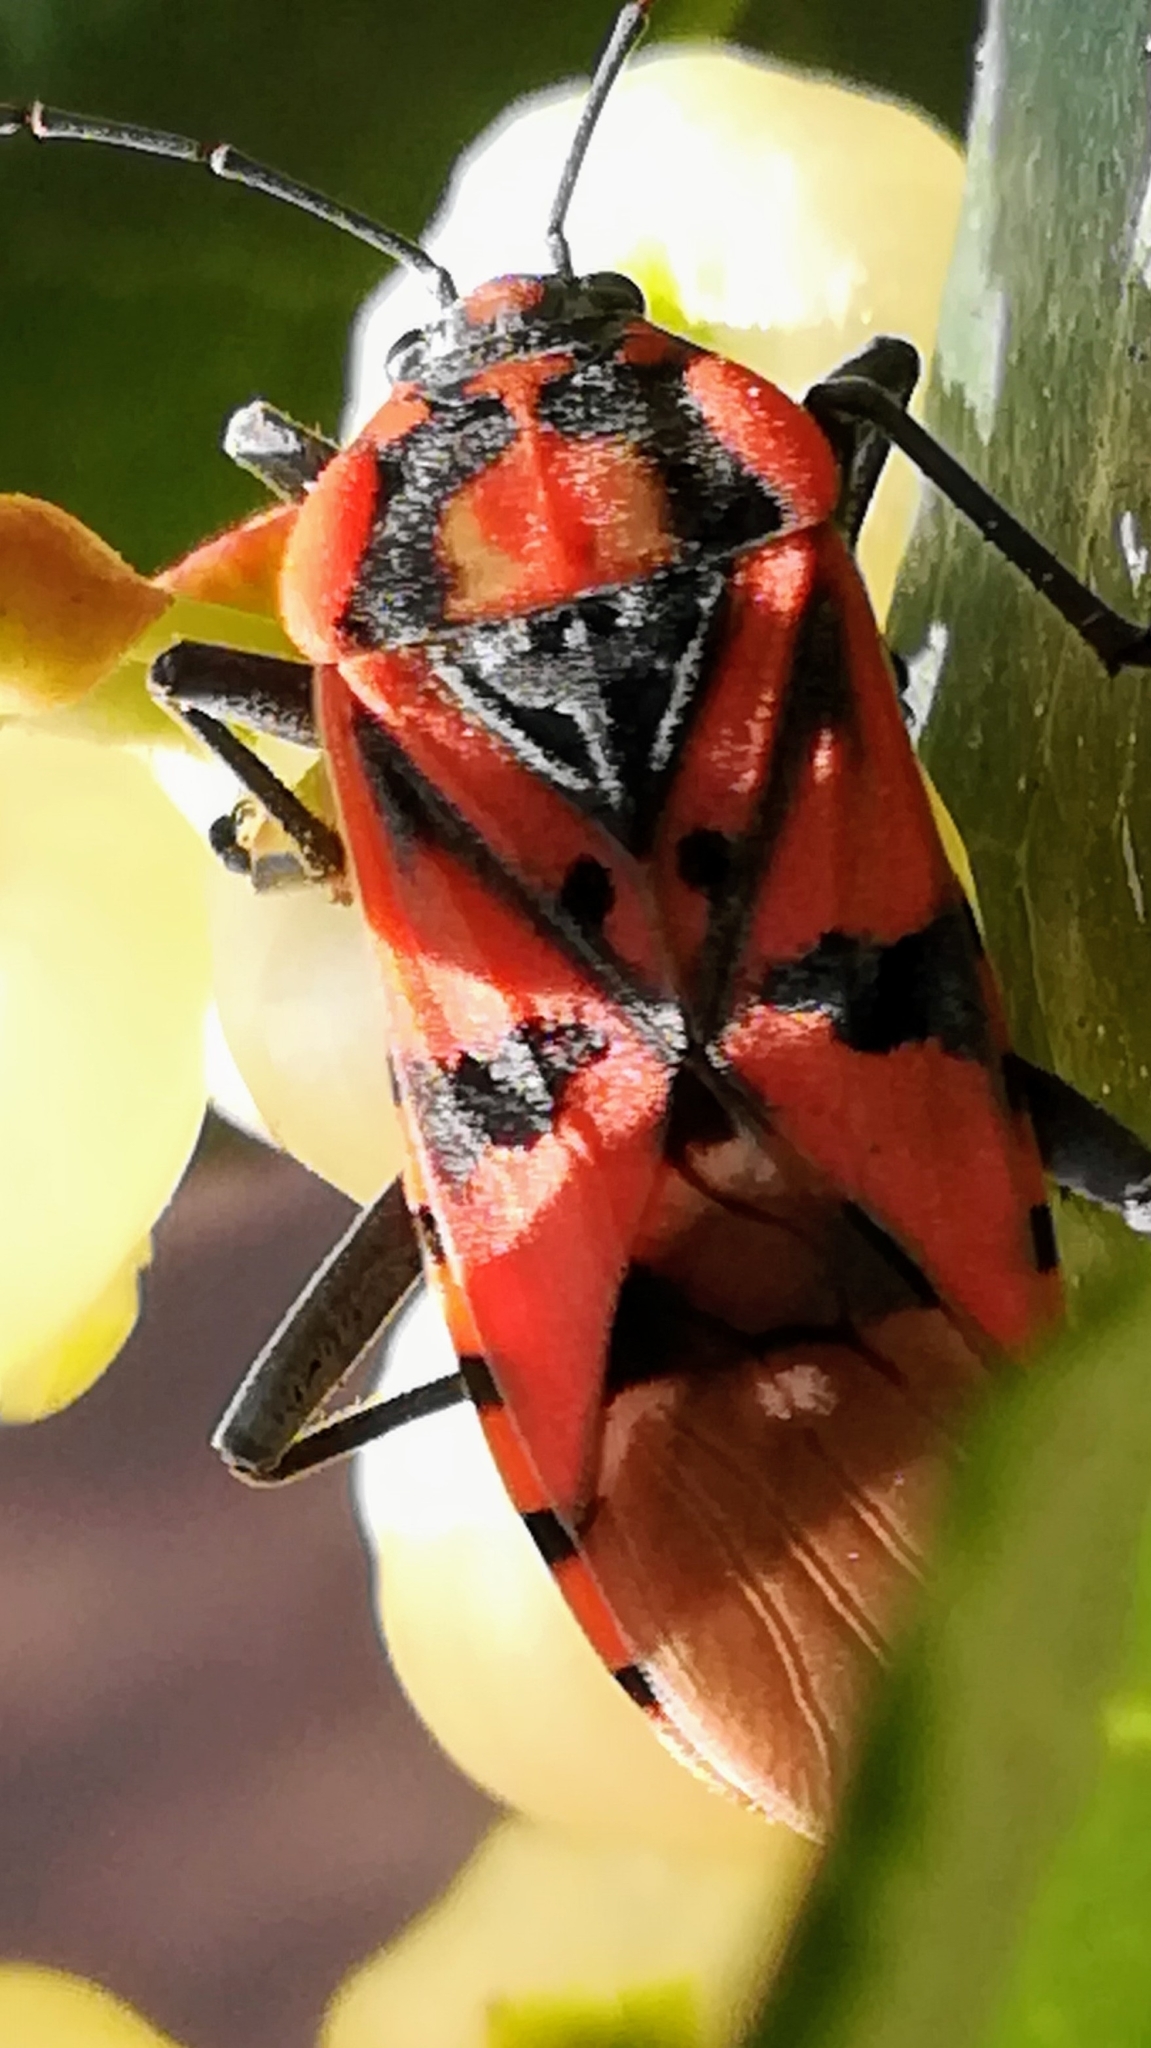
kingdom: Animalia
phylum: Arthropoda
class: Insecta
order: Hemiptera
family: Lygaeidae
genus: Spilostethus
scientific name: Spilostethus pandurus
